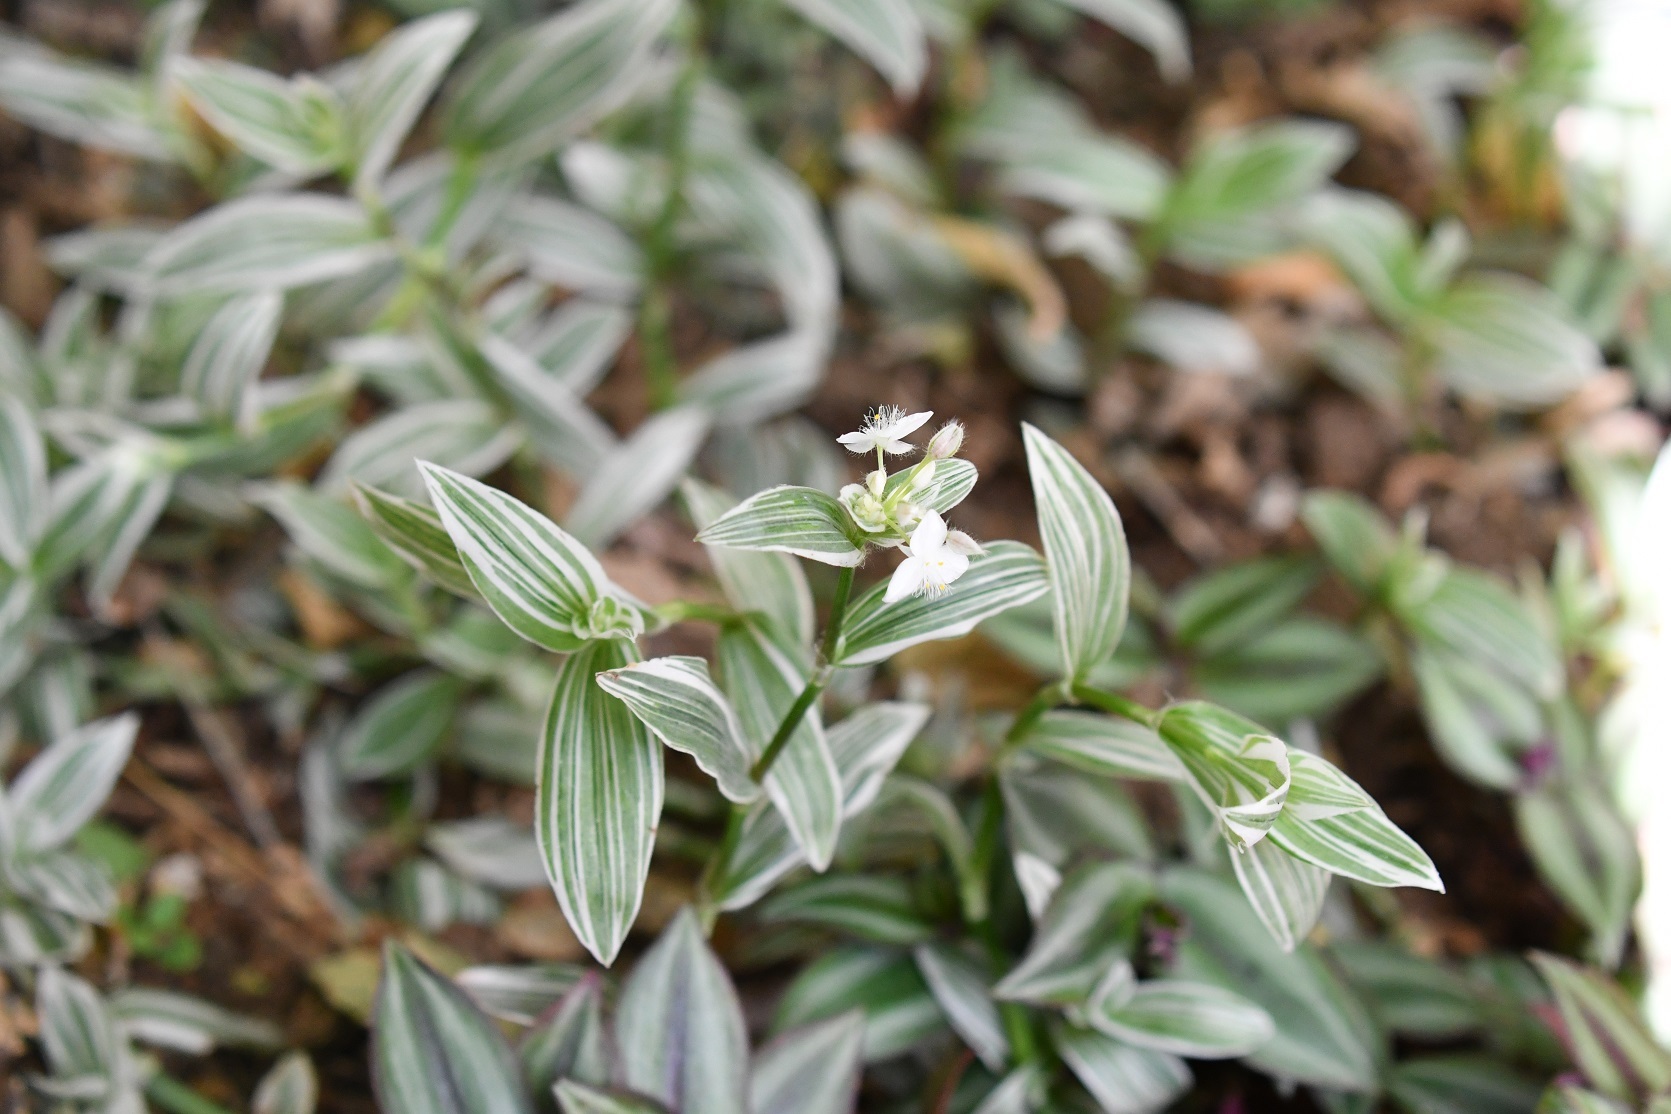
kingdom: Plantae
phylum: Tracheophyta
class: Liliopsida
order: Commelinales
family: Commelinaceae
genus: Tradescantia
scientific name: Tradescantia fluminensis
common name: Wandering-jew
